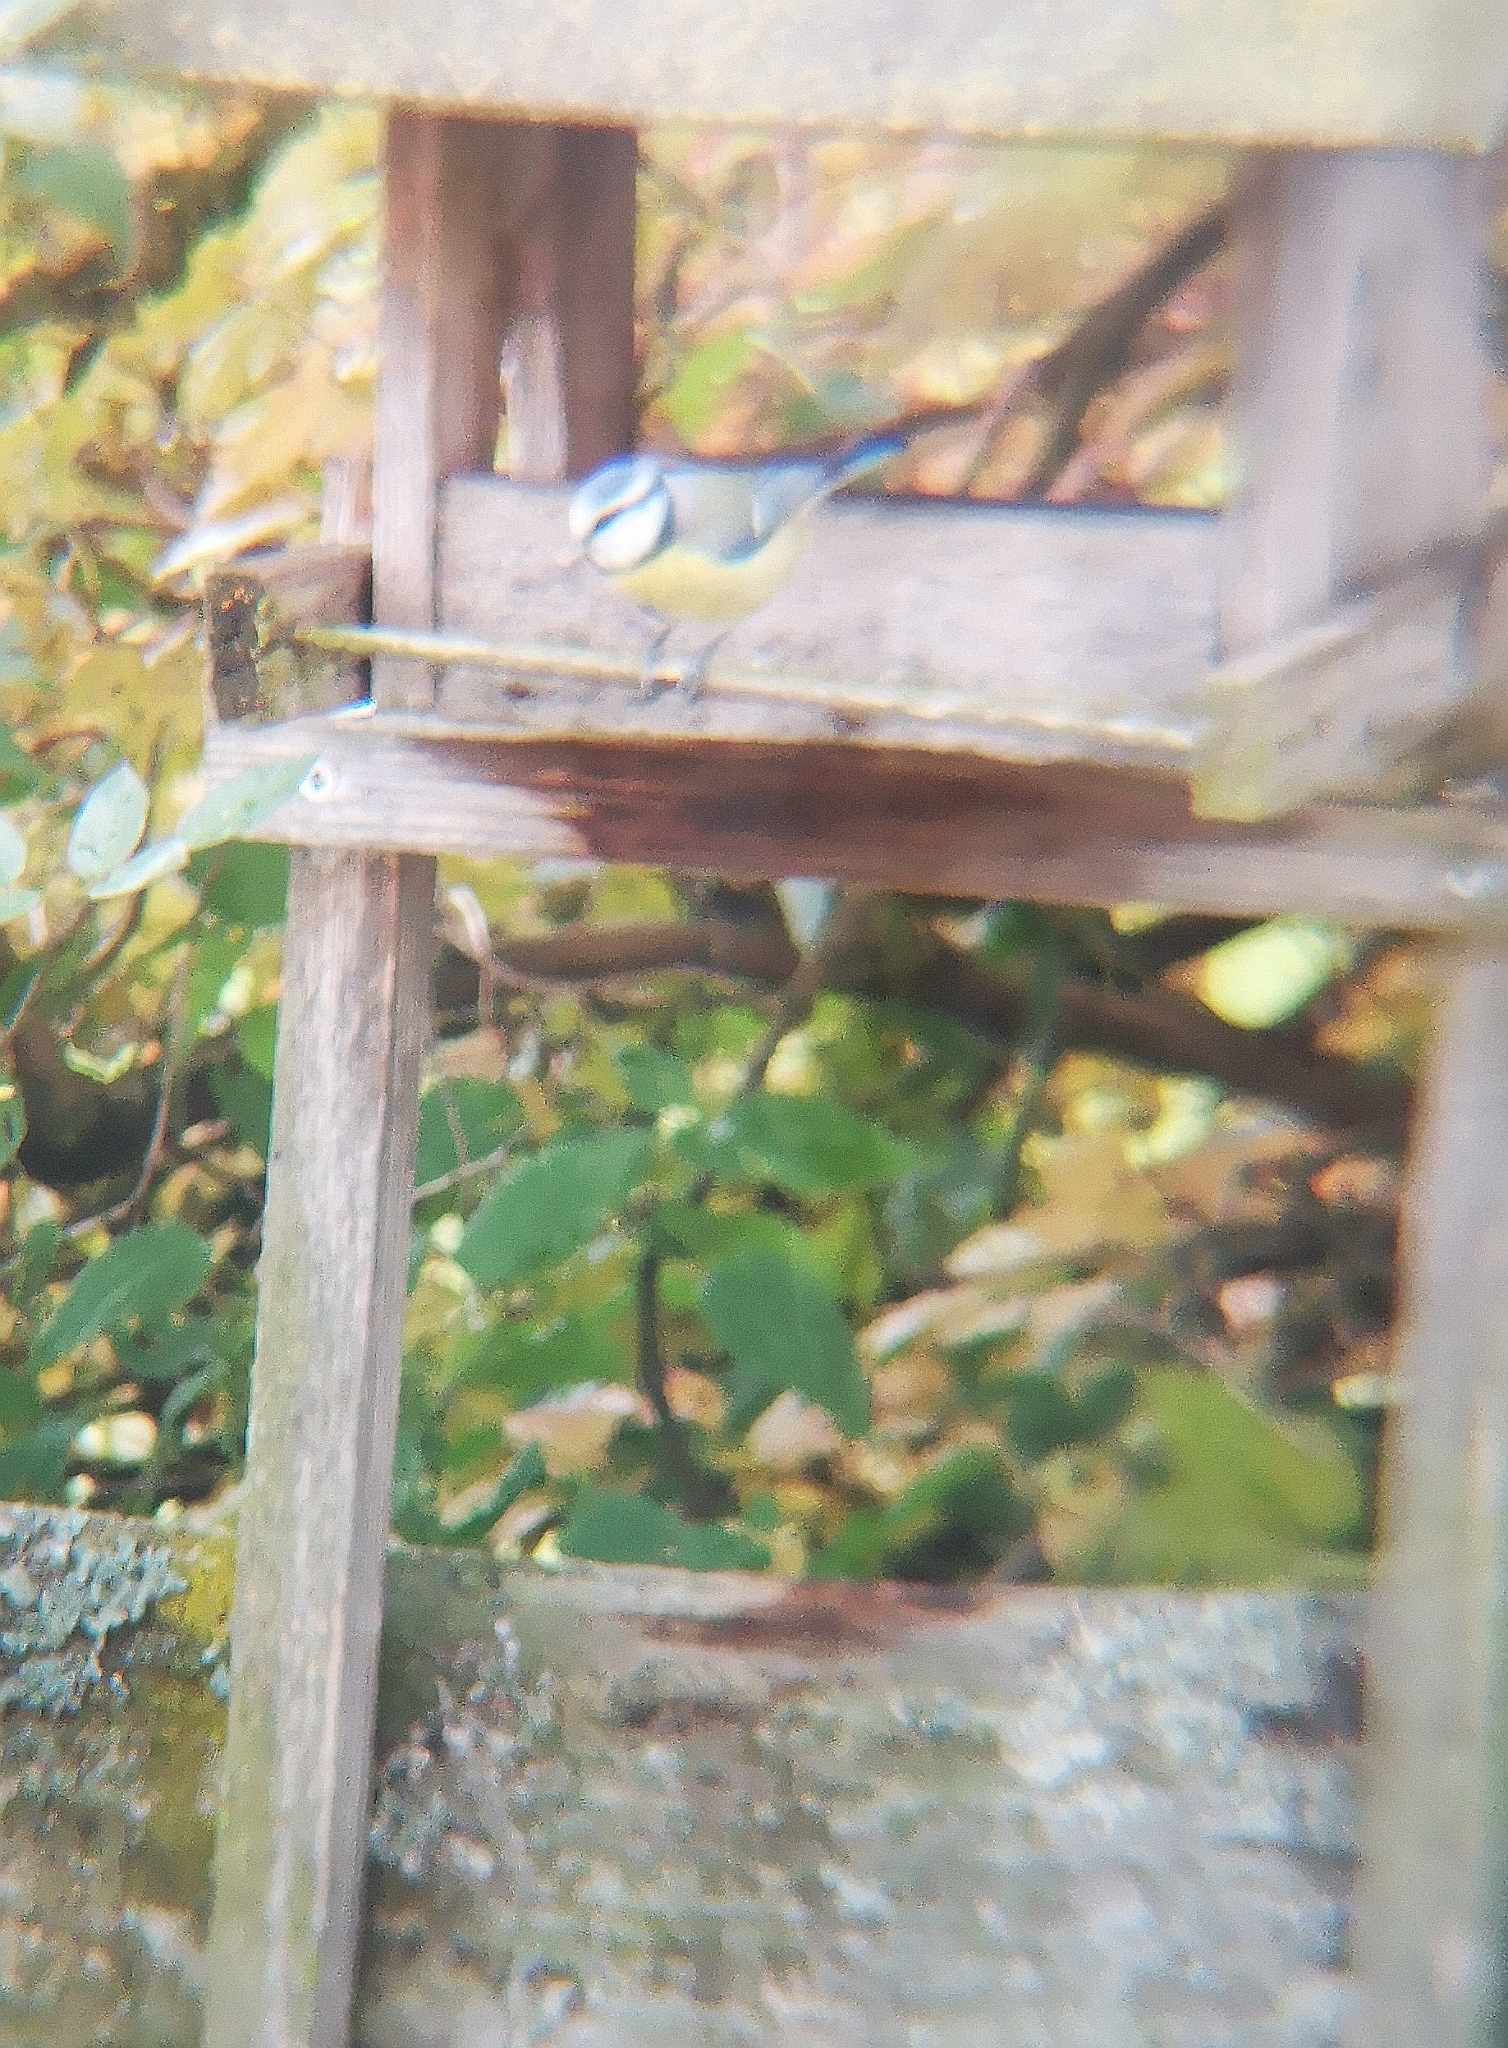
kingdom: Animalia
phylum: Chordata
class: Aves
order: Passeriformes
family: Paridae
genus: Cyanistes
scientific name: Cyanistes caeruleus
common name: Eurasian blue tit
